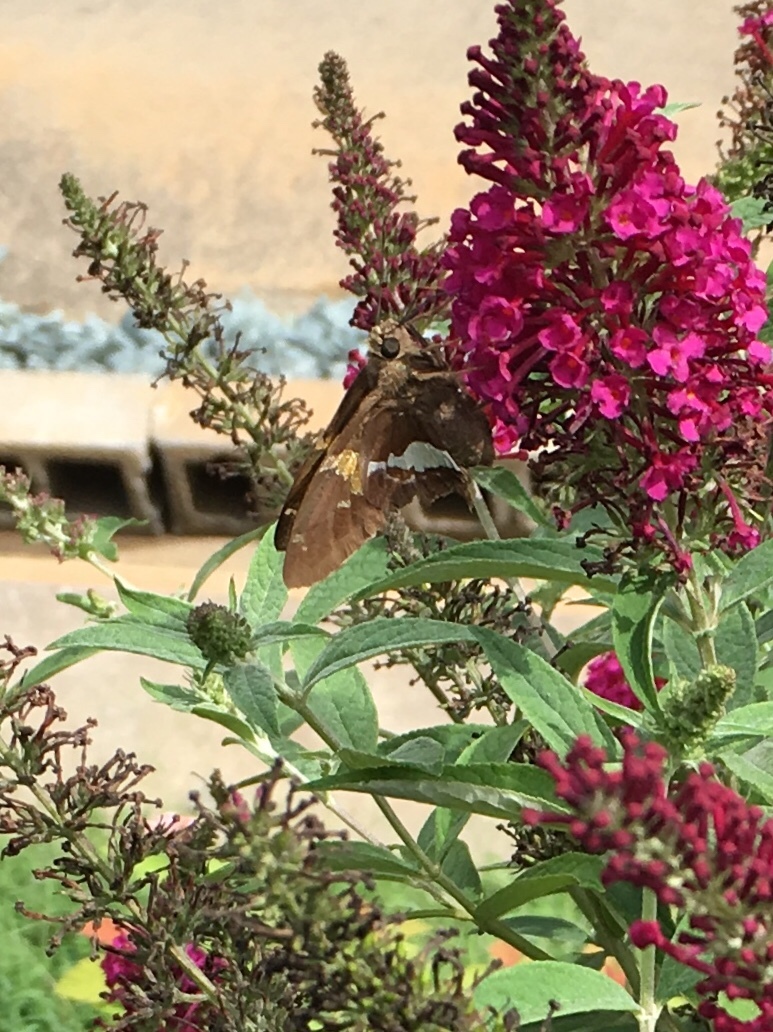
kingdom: Animalia
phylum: Arthropoda
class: Insecta
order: Lepidoptera
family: Hesperiidae
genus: Epargyreus
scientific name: Epargyreus clarus
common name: Silver-spotted skipper
